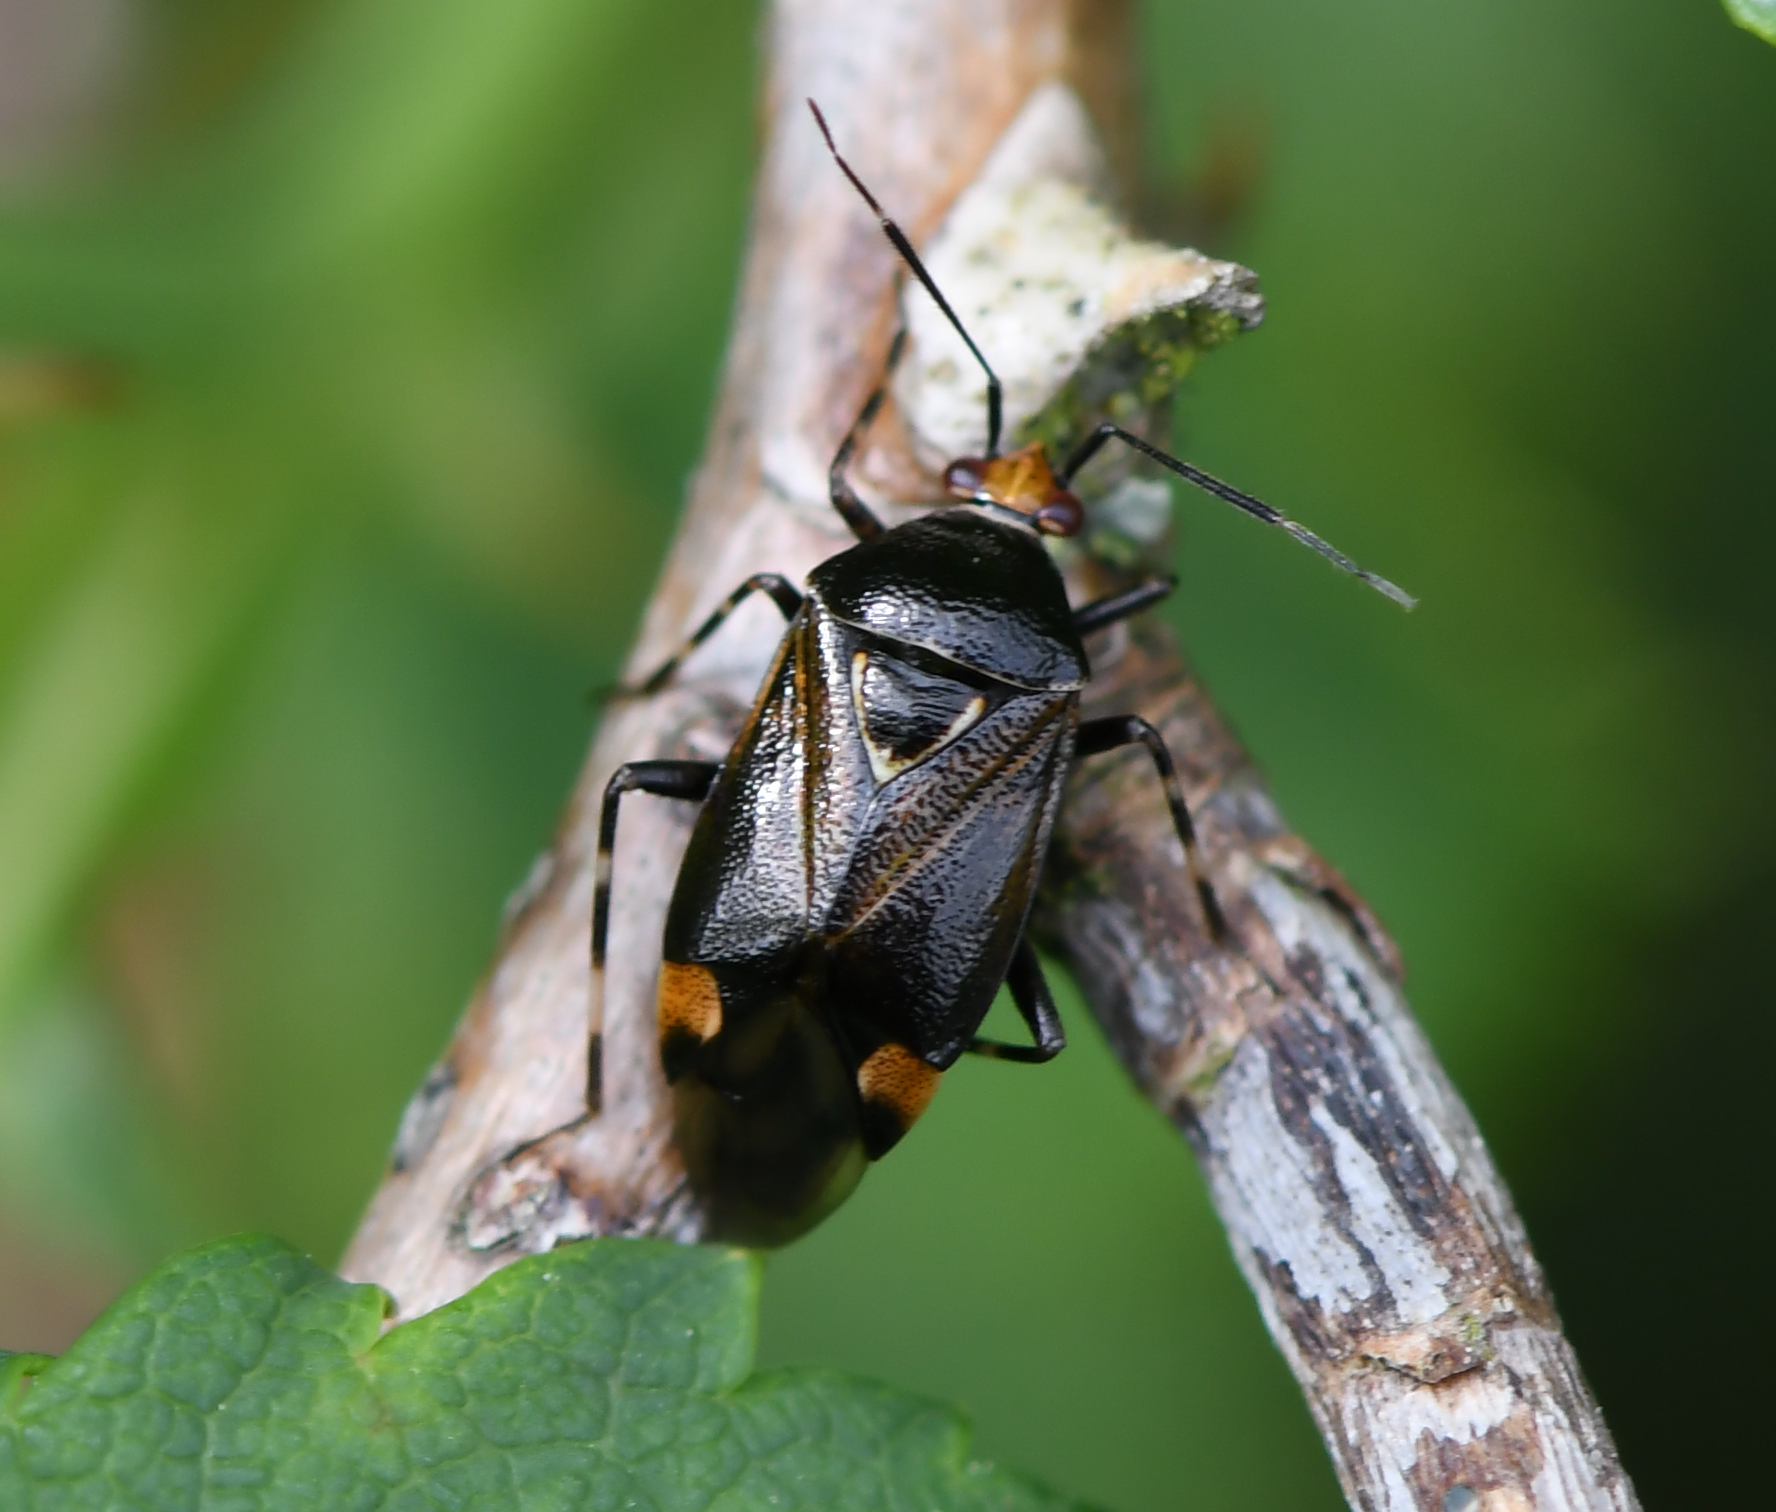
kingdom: Animalia
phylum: Arthropoda
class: Insecta
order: Hemiptera
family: Miridae
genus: Deraeocoris
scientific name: Deraeocoris flavilinea
